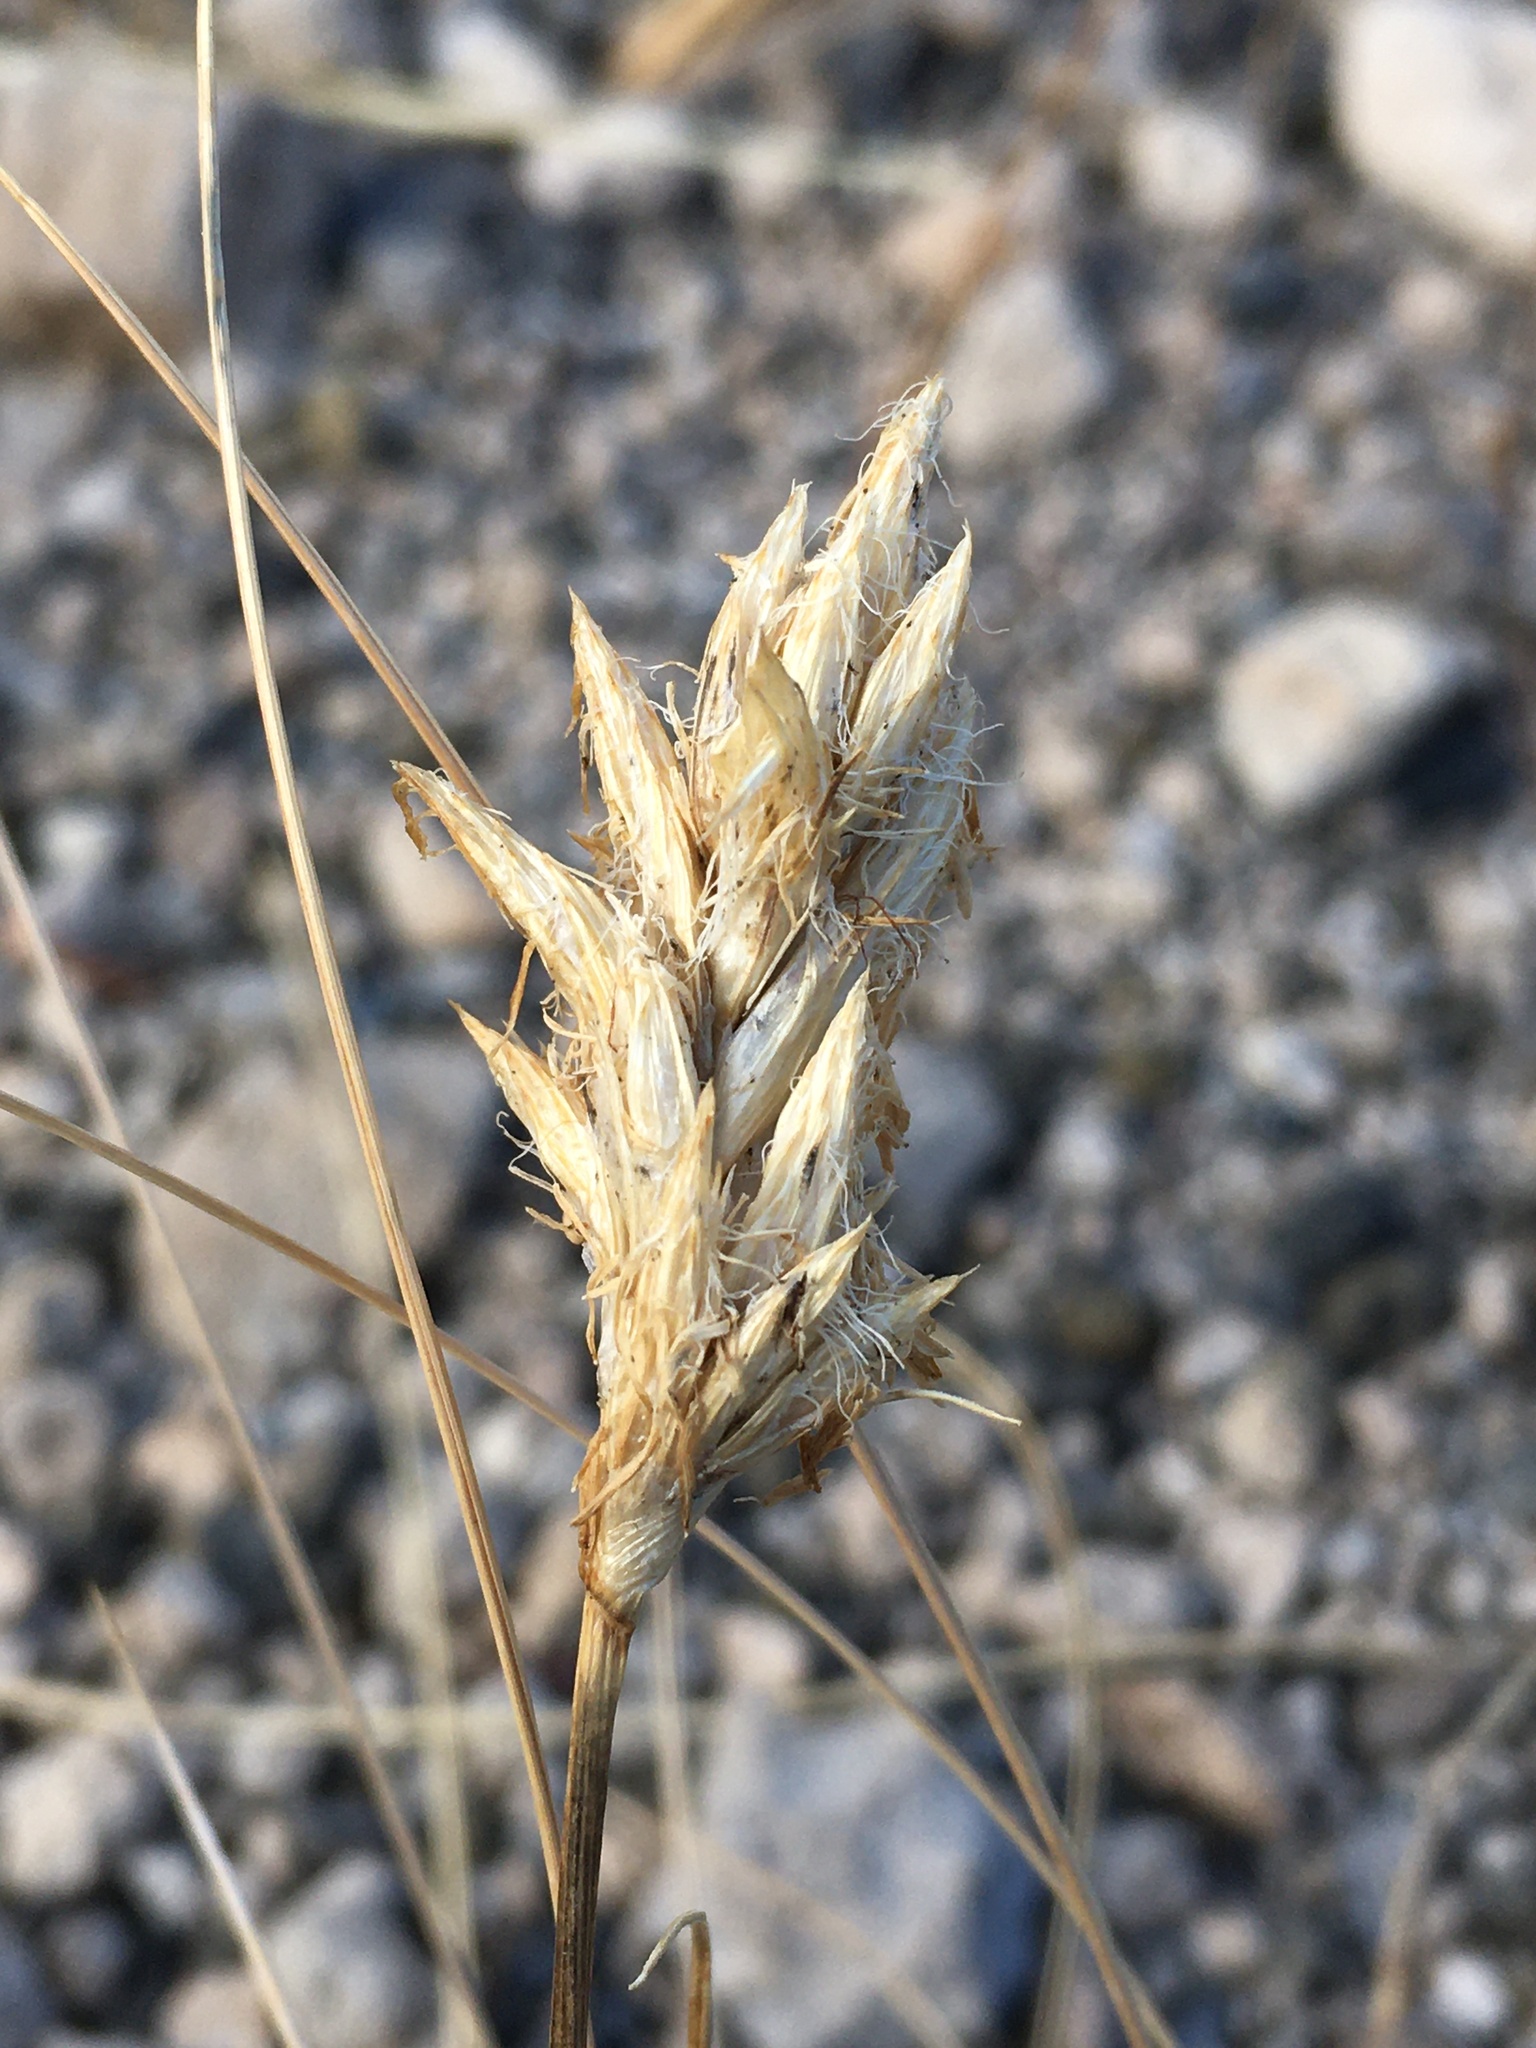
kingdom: Plantae
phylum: Tracheophyta
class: Liliopsida
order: Poales
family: Cyperaceae
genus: Carex
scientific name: Carex douglasii
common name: Douglas' sedge
